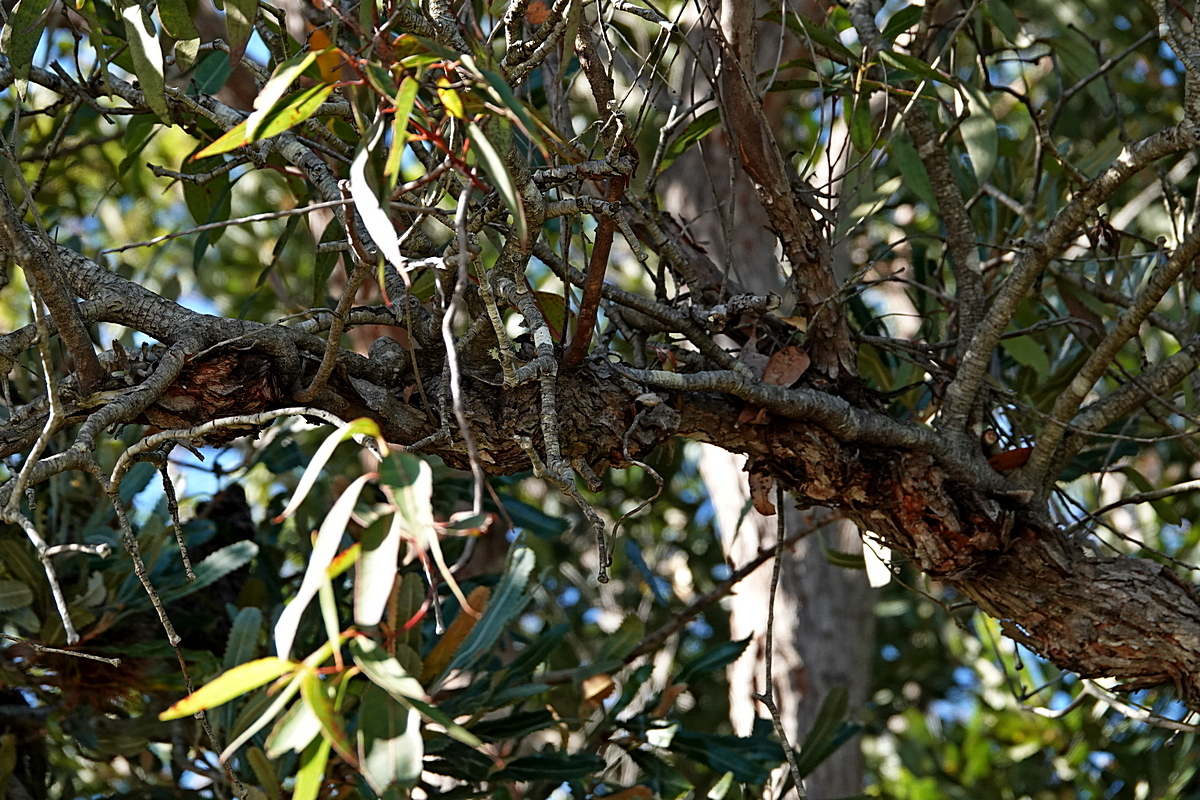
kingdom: Plantae
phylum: Tracheophyta
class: Magnoliopsida
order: Santalales
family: Loranthaceae
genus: Muellerina
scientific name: Muellerina eucalyptoides
